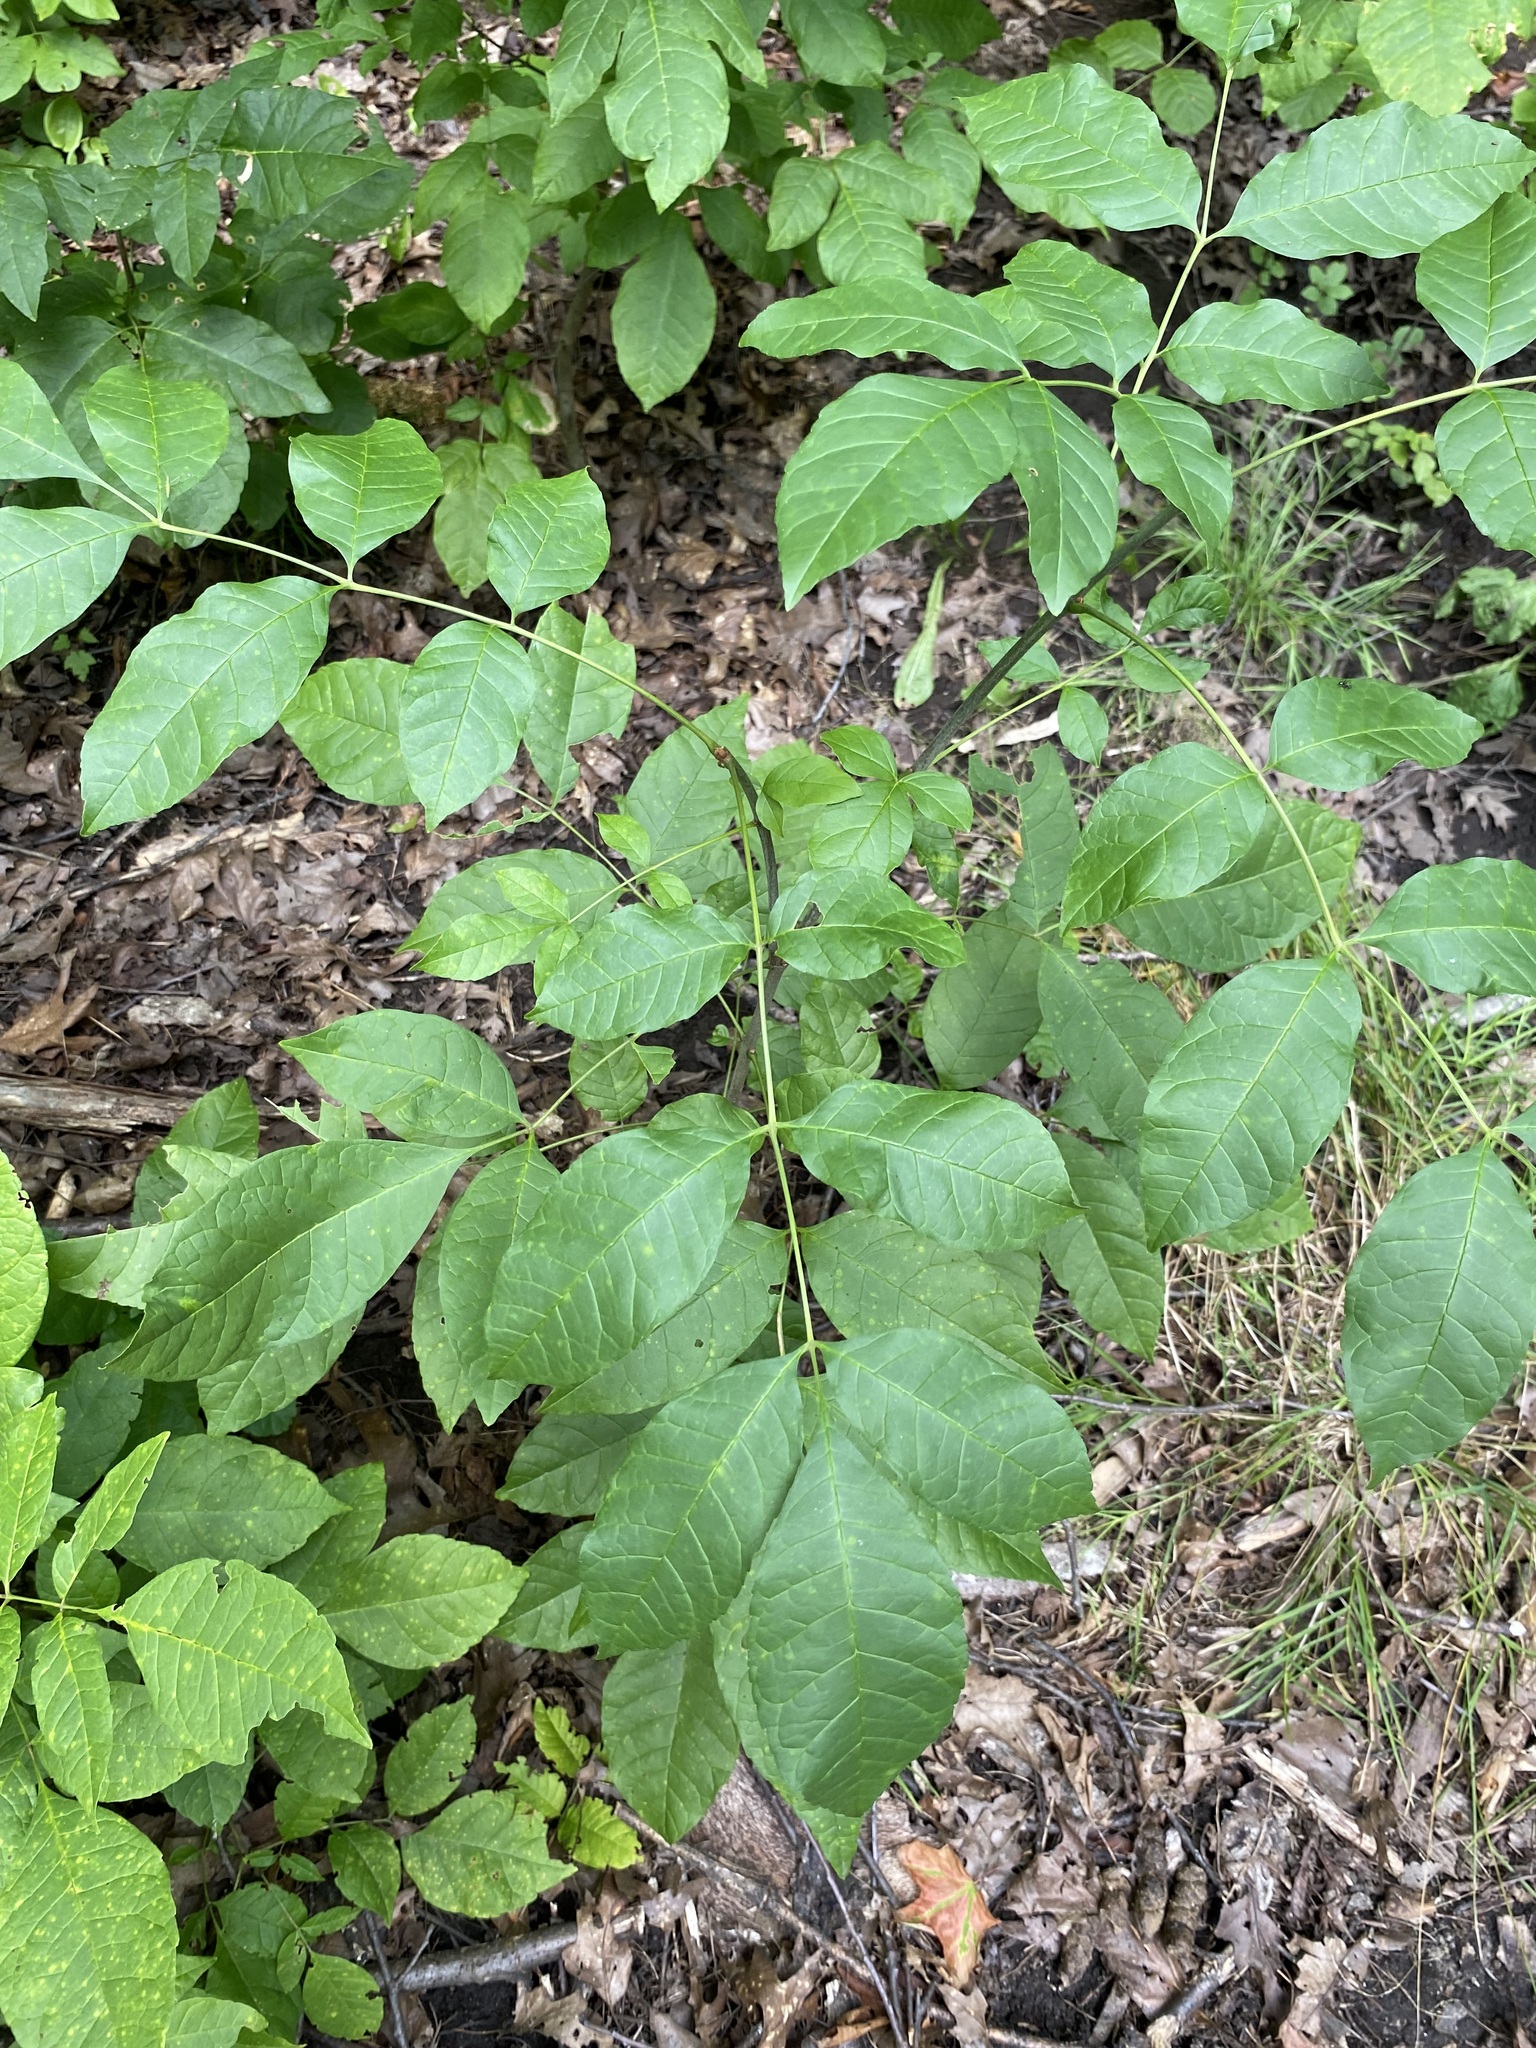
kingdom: Plantae
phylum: Tracheophyta
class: Magnoliopsida
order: Lamiales
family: Oleaceae
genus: Fraxinus
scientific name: Fraxinus americana
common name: White ash
